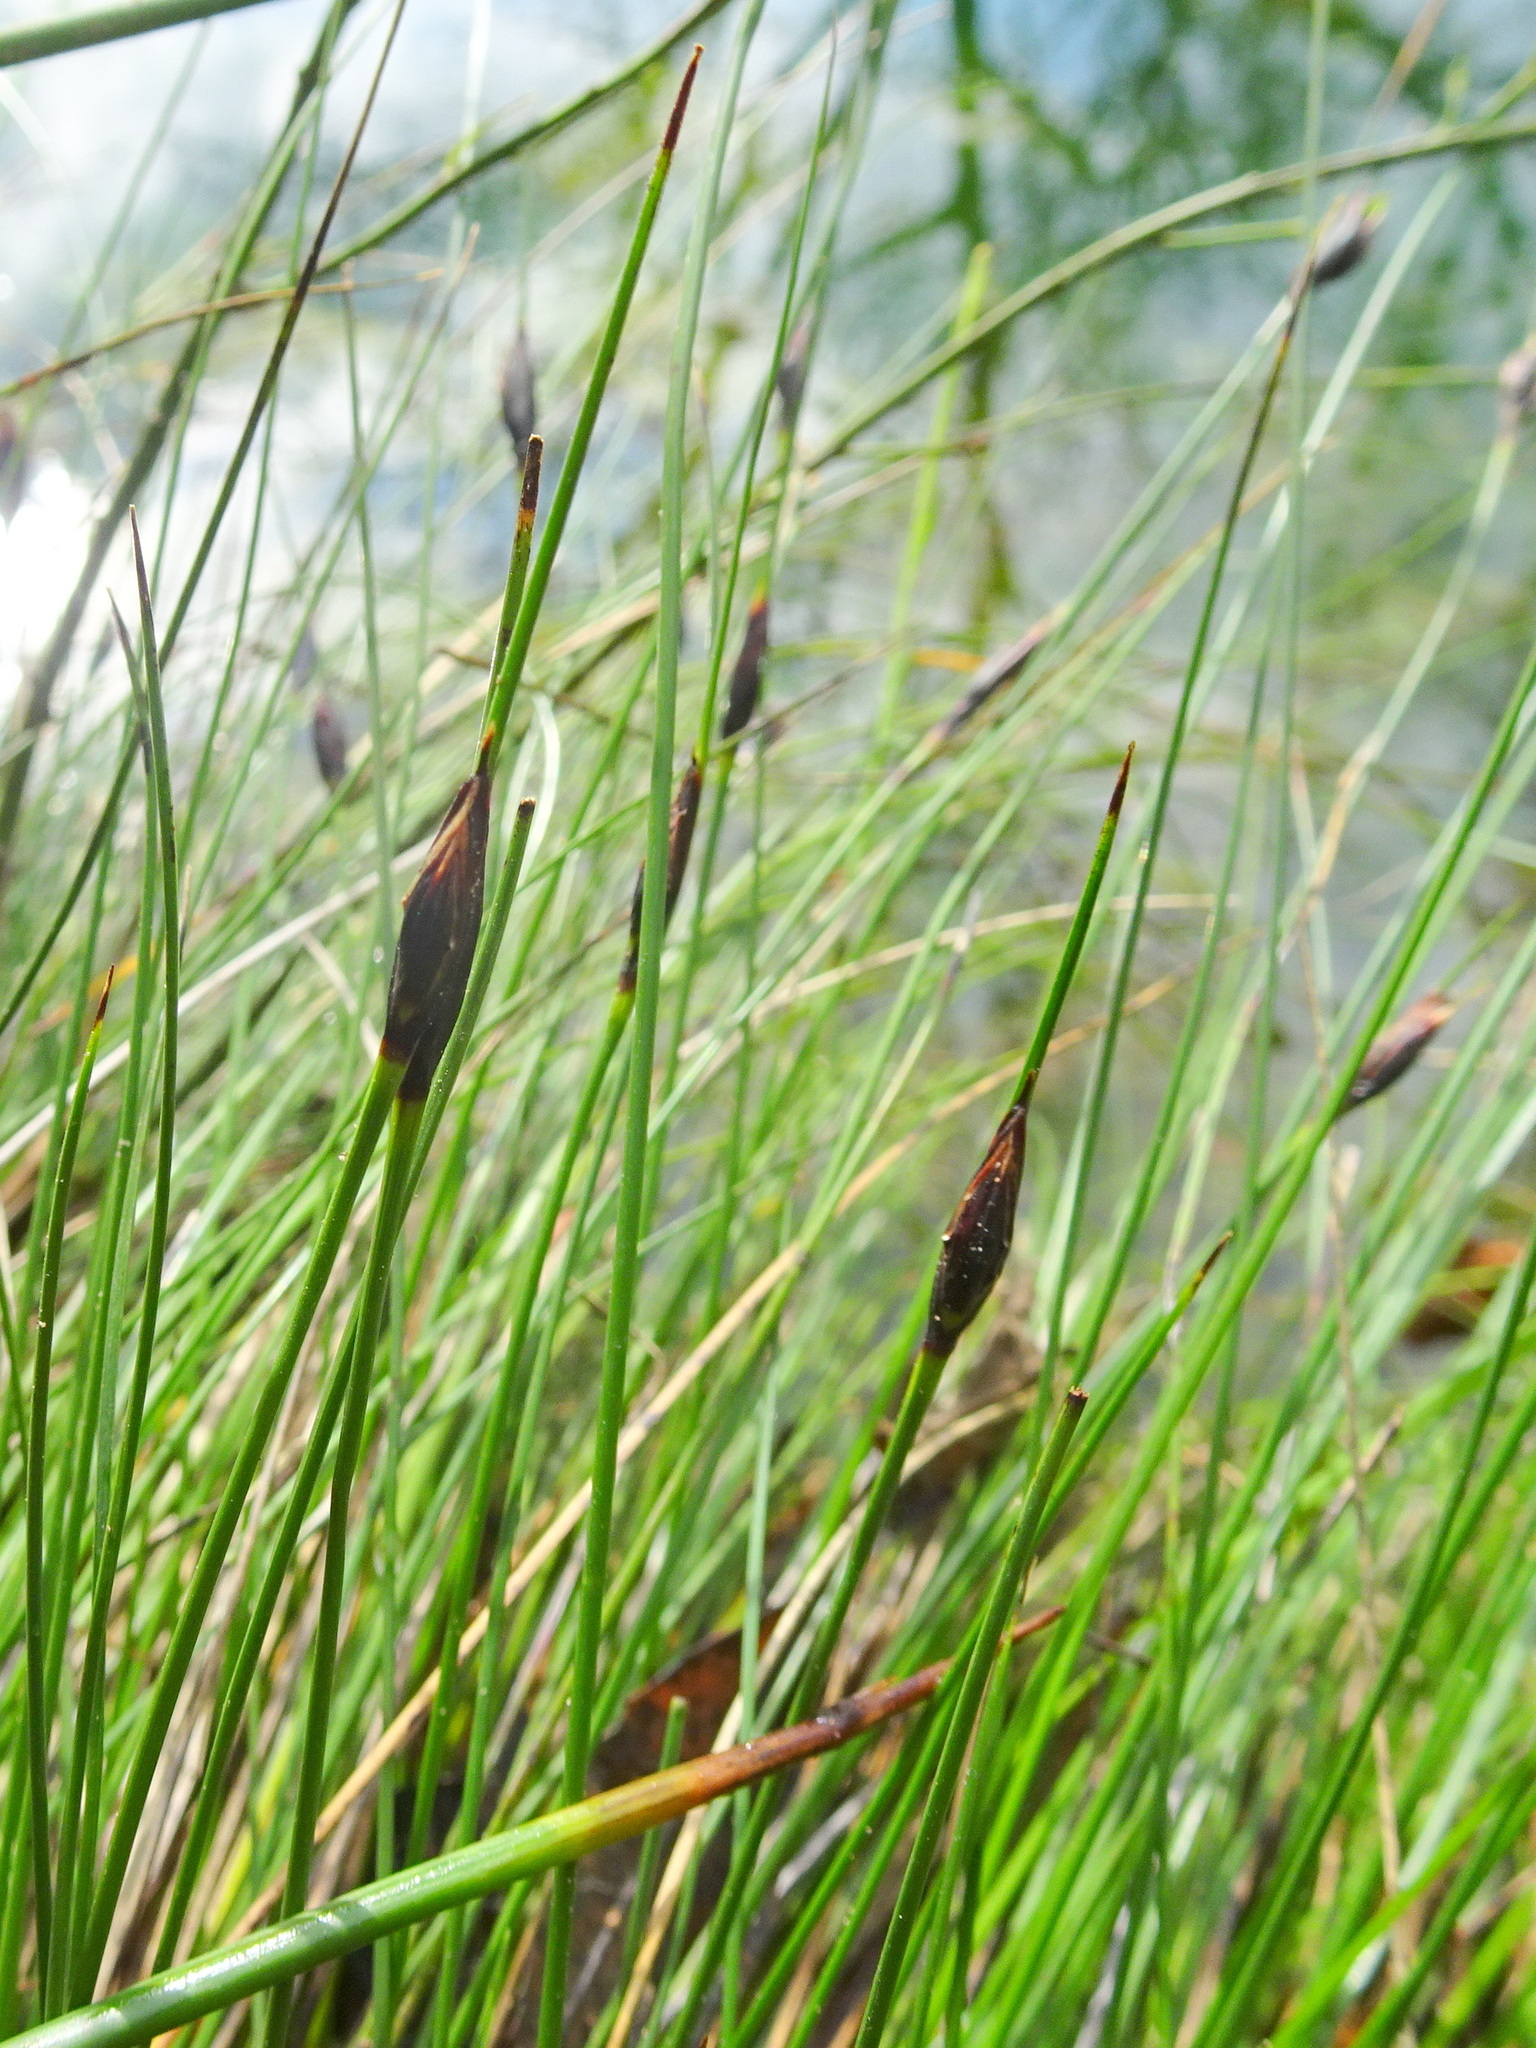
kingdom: Plantae
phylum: Tracheophyta
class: Liliopsida
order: Poales
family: Cyperaceae
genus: Schoenus
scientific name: Schoenus nigricans
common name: Black bog-rush
